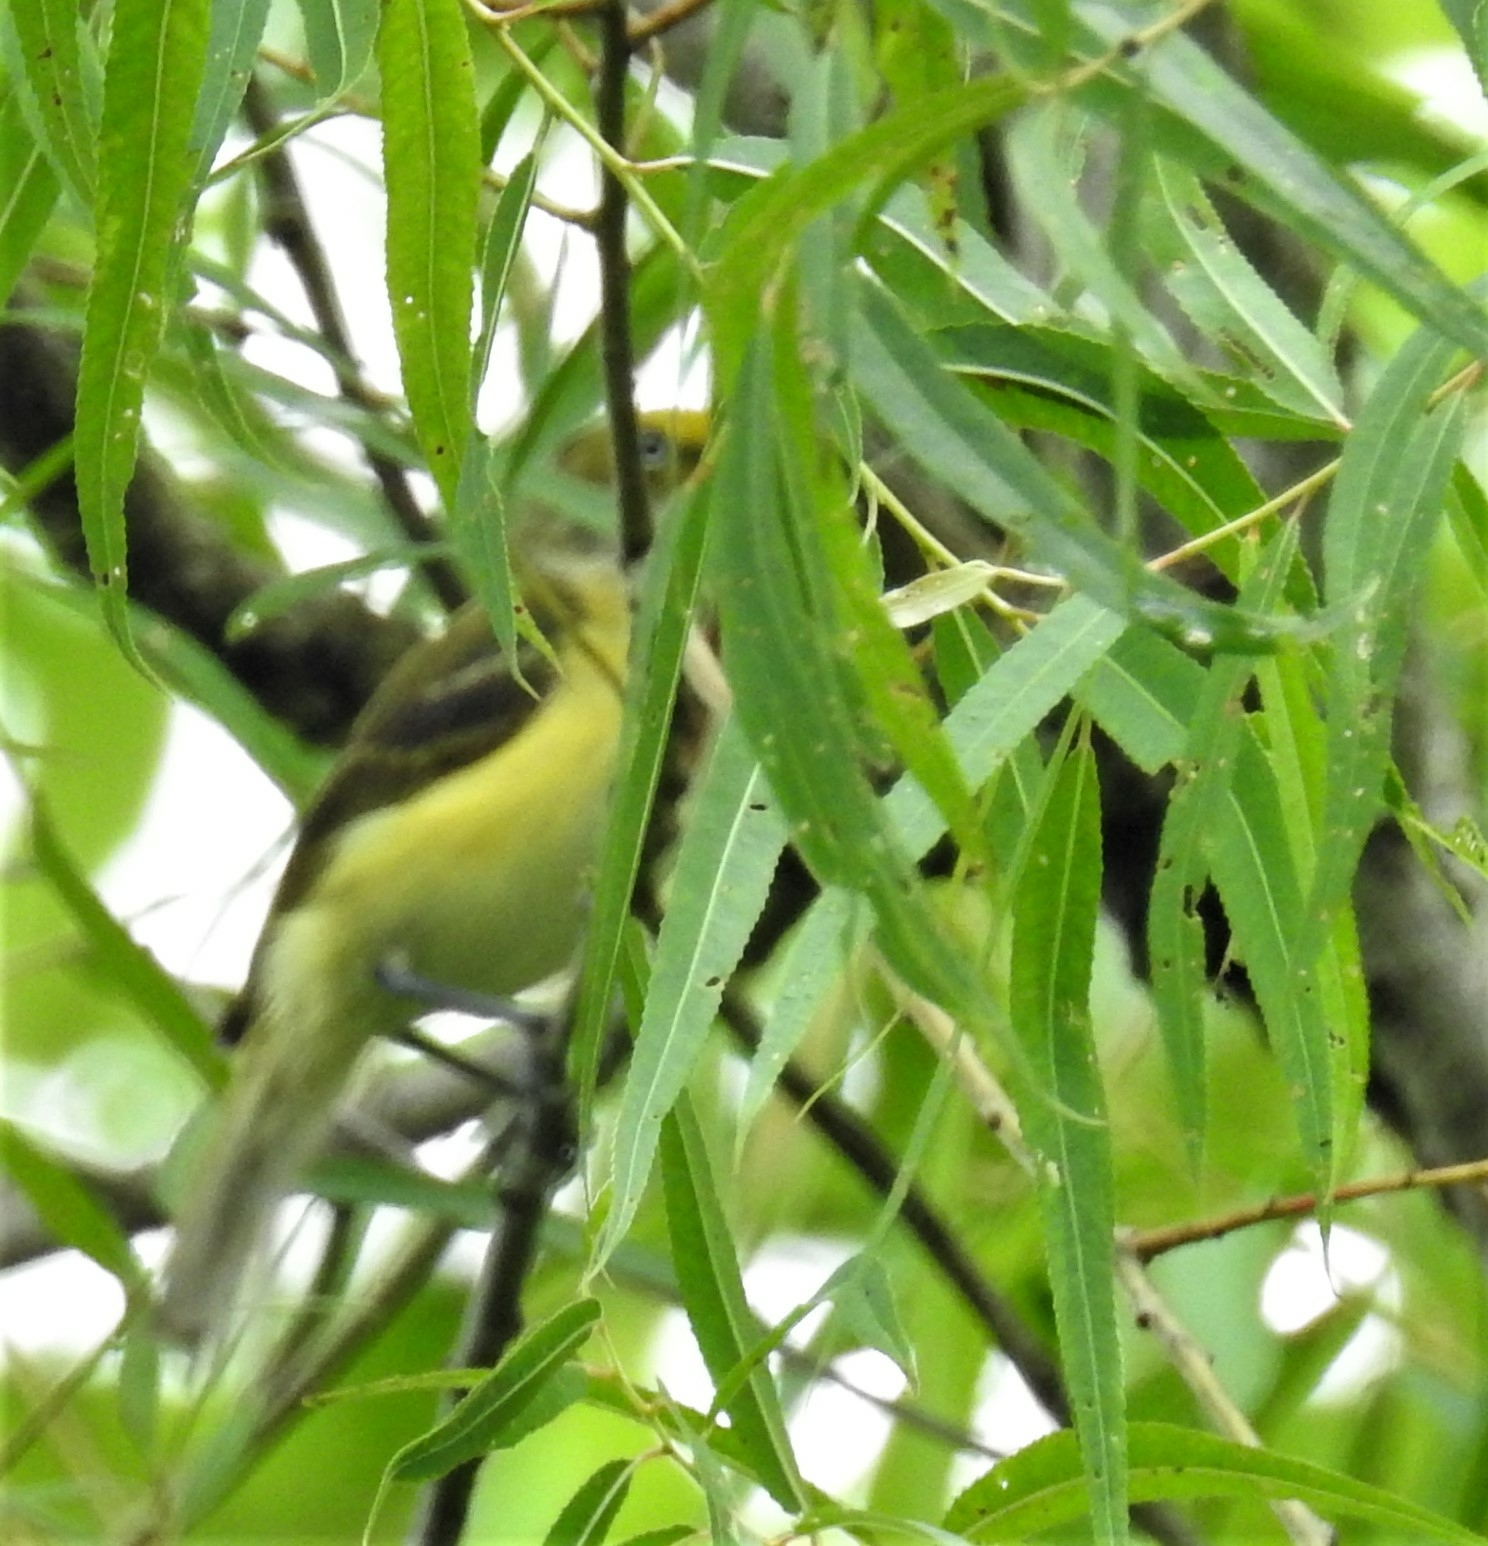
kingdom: Animalia
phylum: Chordata
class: Aves
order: Passeriformes
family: Vireonidae
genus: Vireo
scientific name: Vireo griseus
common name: White-eyed vireo
